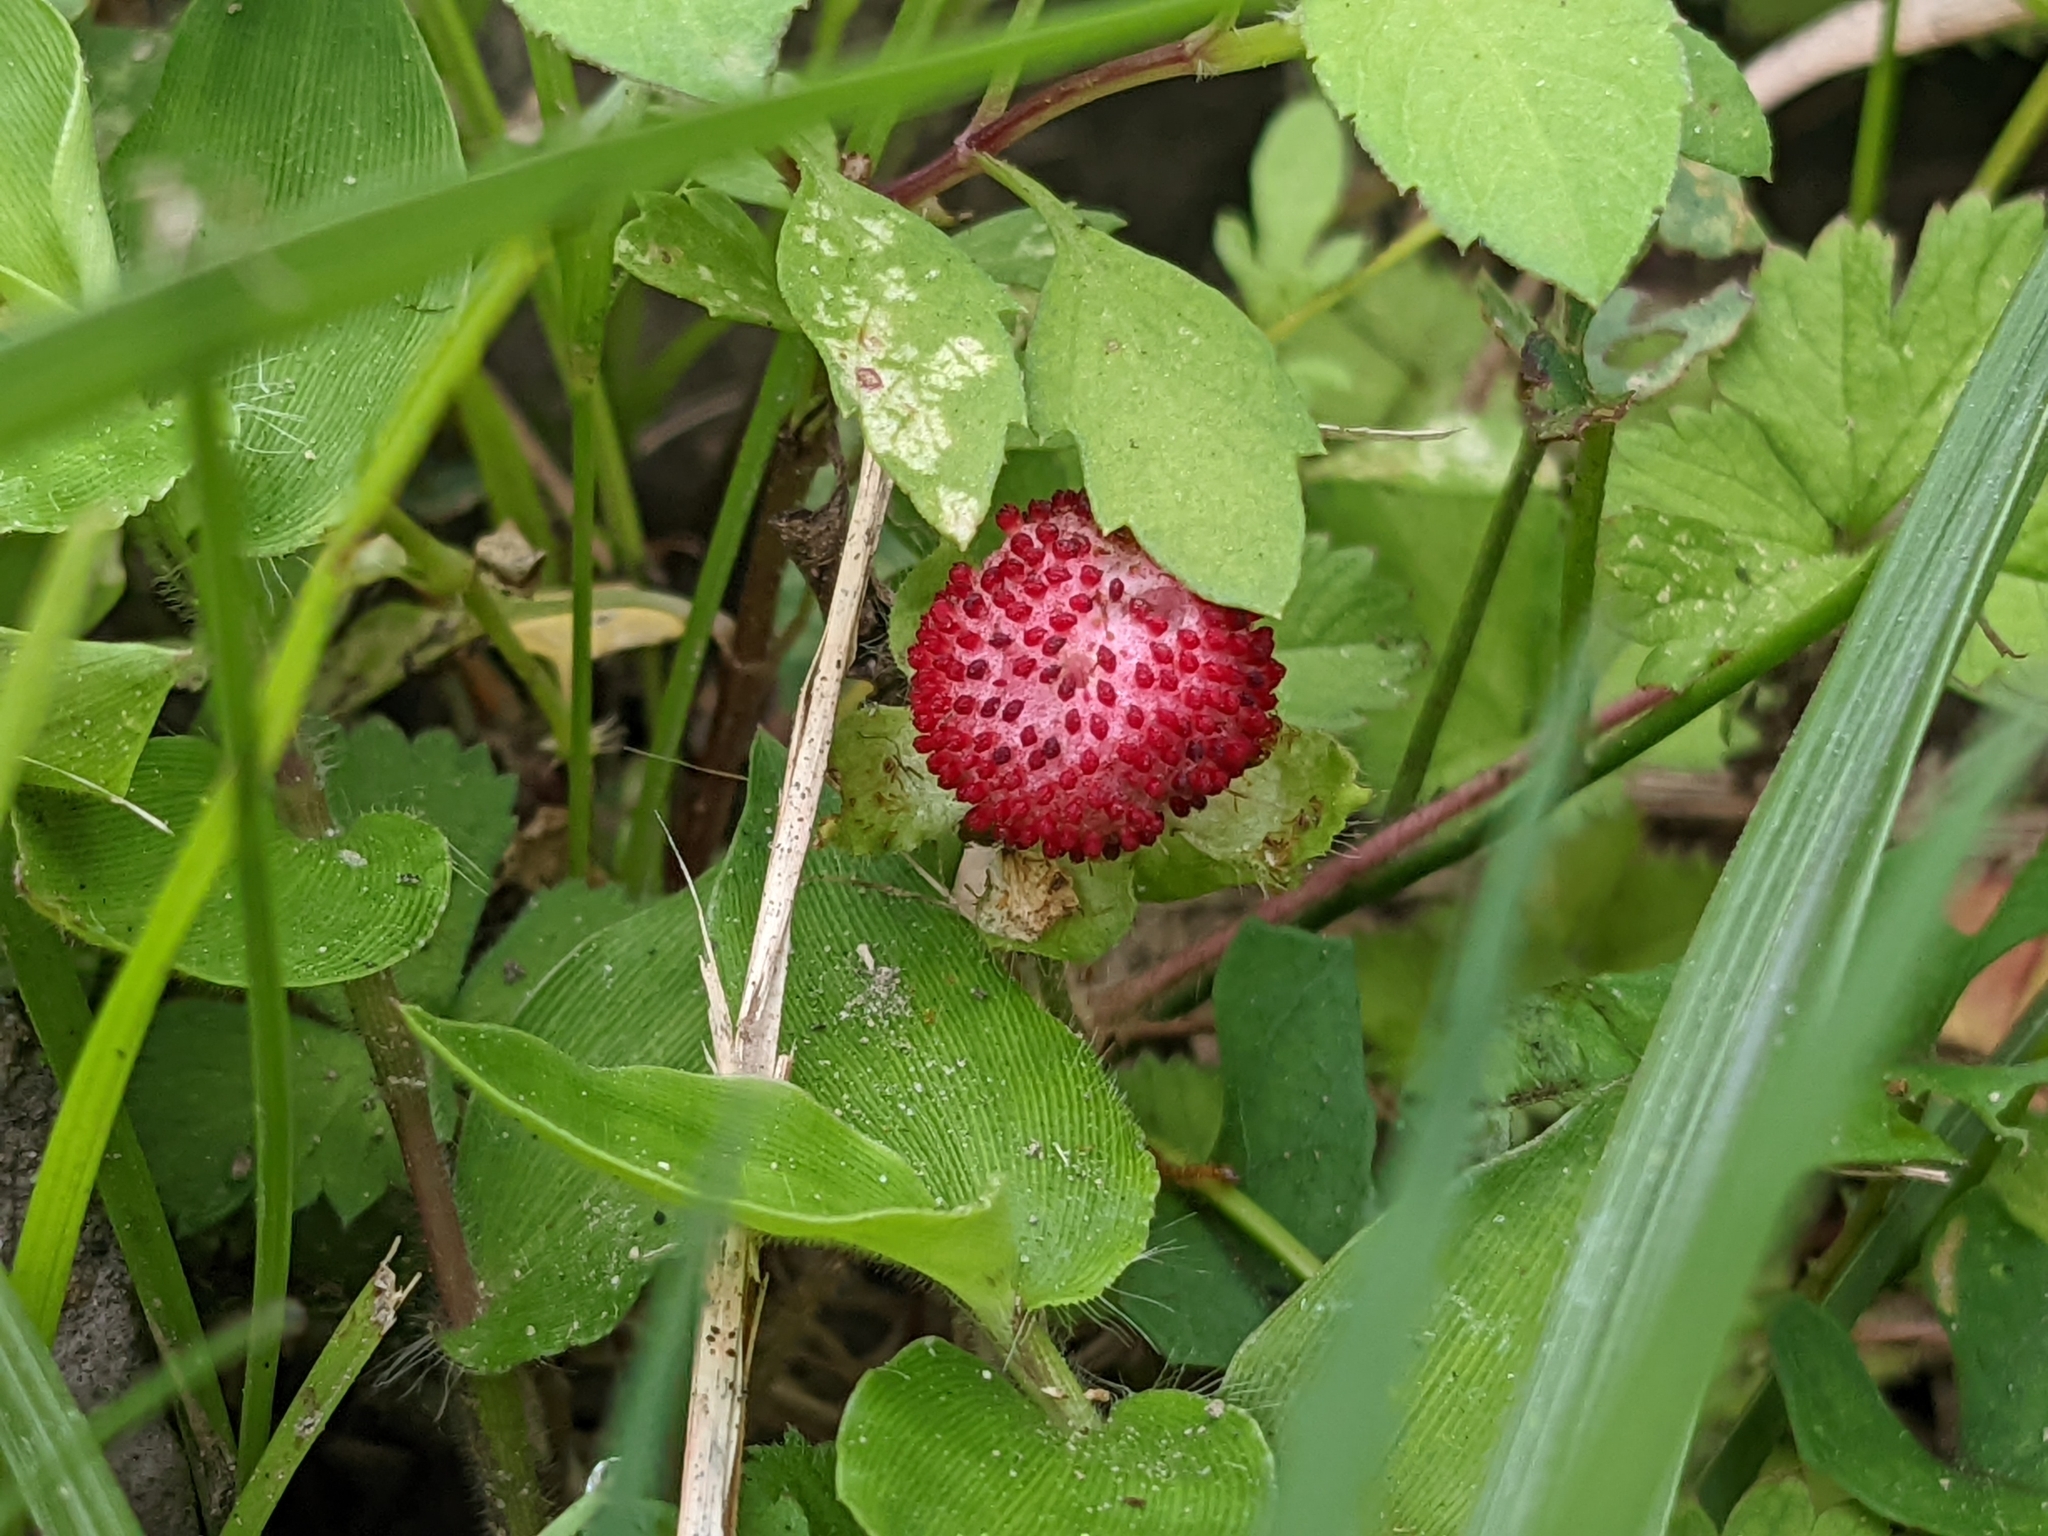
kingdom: Plantae
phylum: Tracheophyta
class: Magnoliopsida
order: Rosales
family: Rosaceae
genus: Potentilla
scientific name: Potentilla wallichiana
